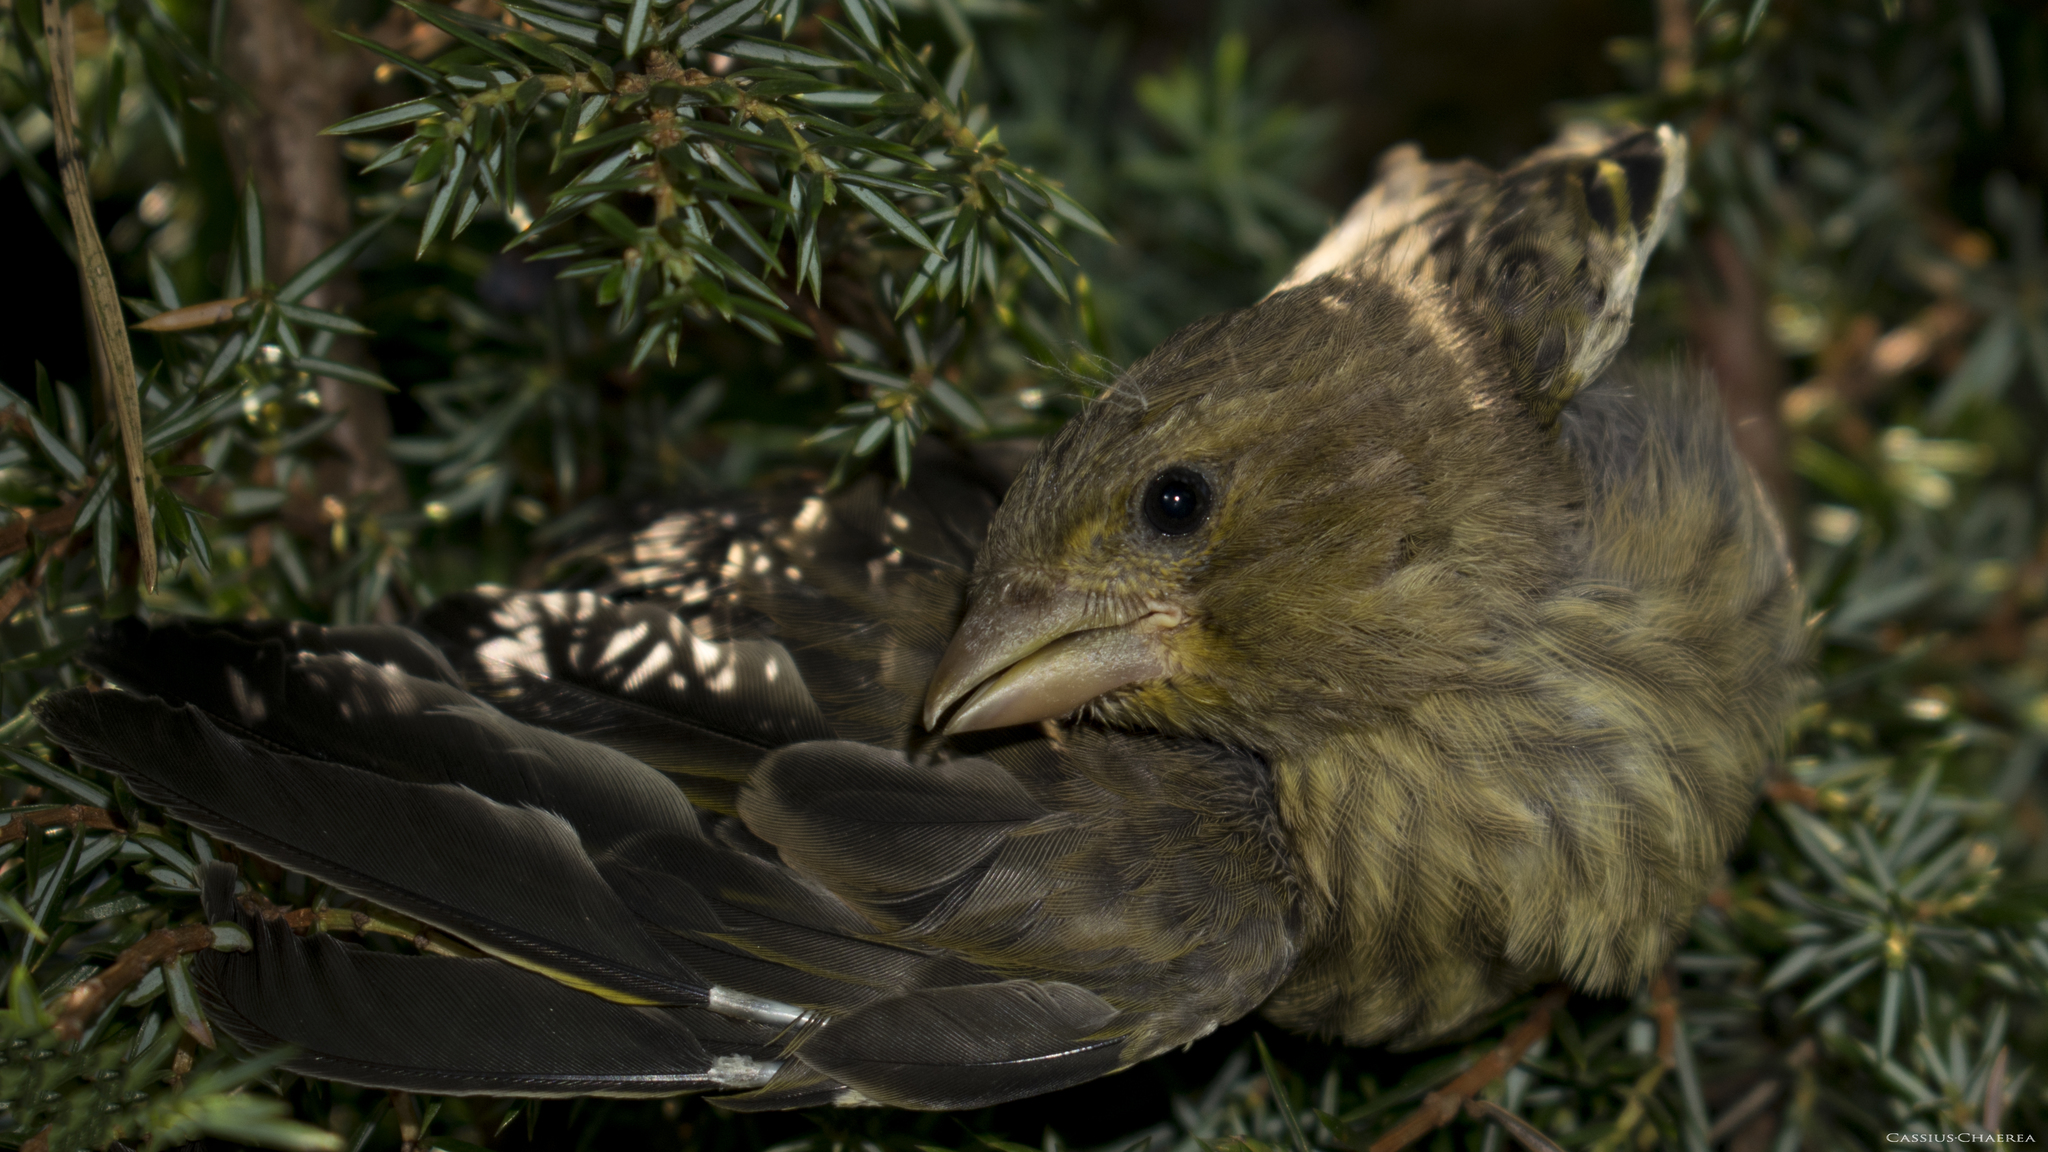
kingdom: Plantae
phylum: Tracheophyta
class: Liliopsida
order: Poales
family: Poaceae
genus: Chloris
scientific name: Chloris chloris
